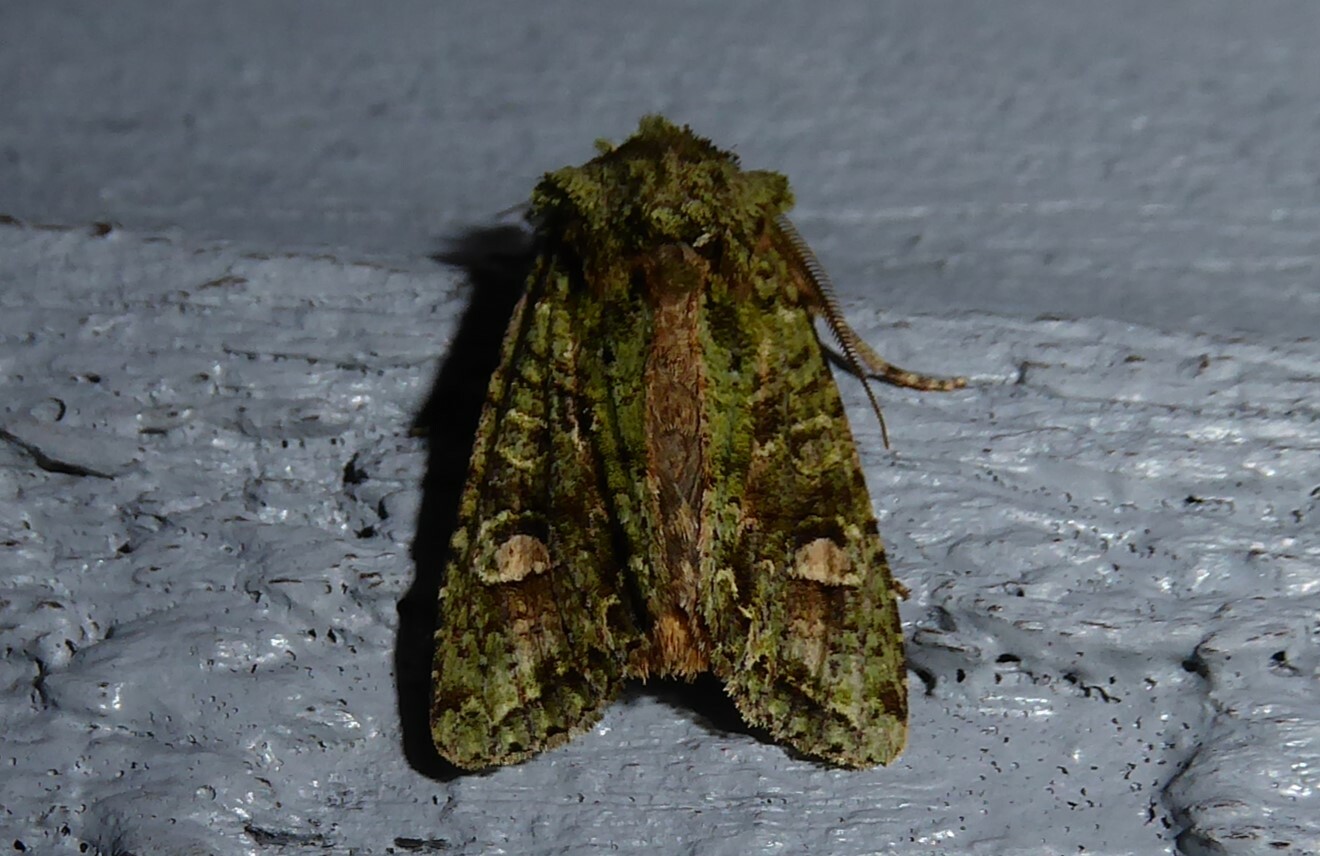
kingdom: Animalia
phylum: Arthropoda
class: Insecta
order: Lepidoptera
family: Noctuidae
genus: Ichneutica
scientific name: Ichneutica
